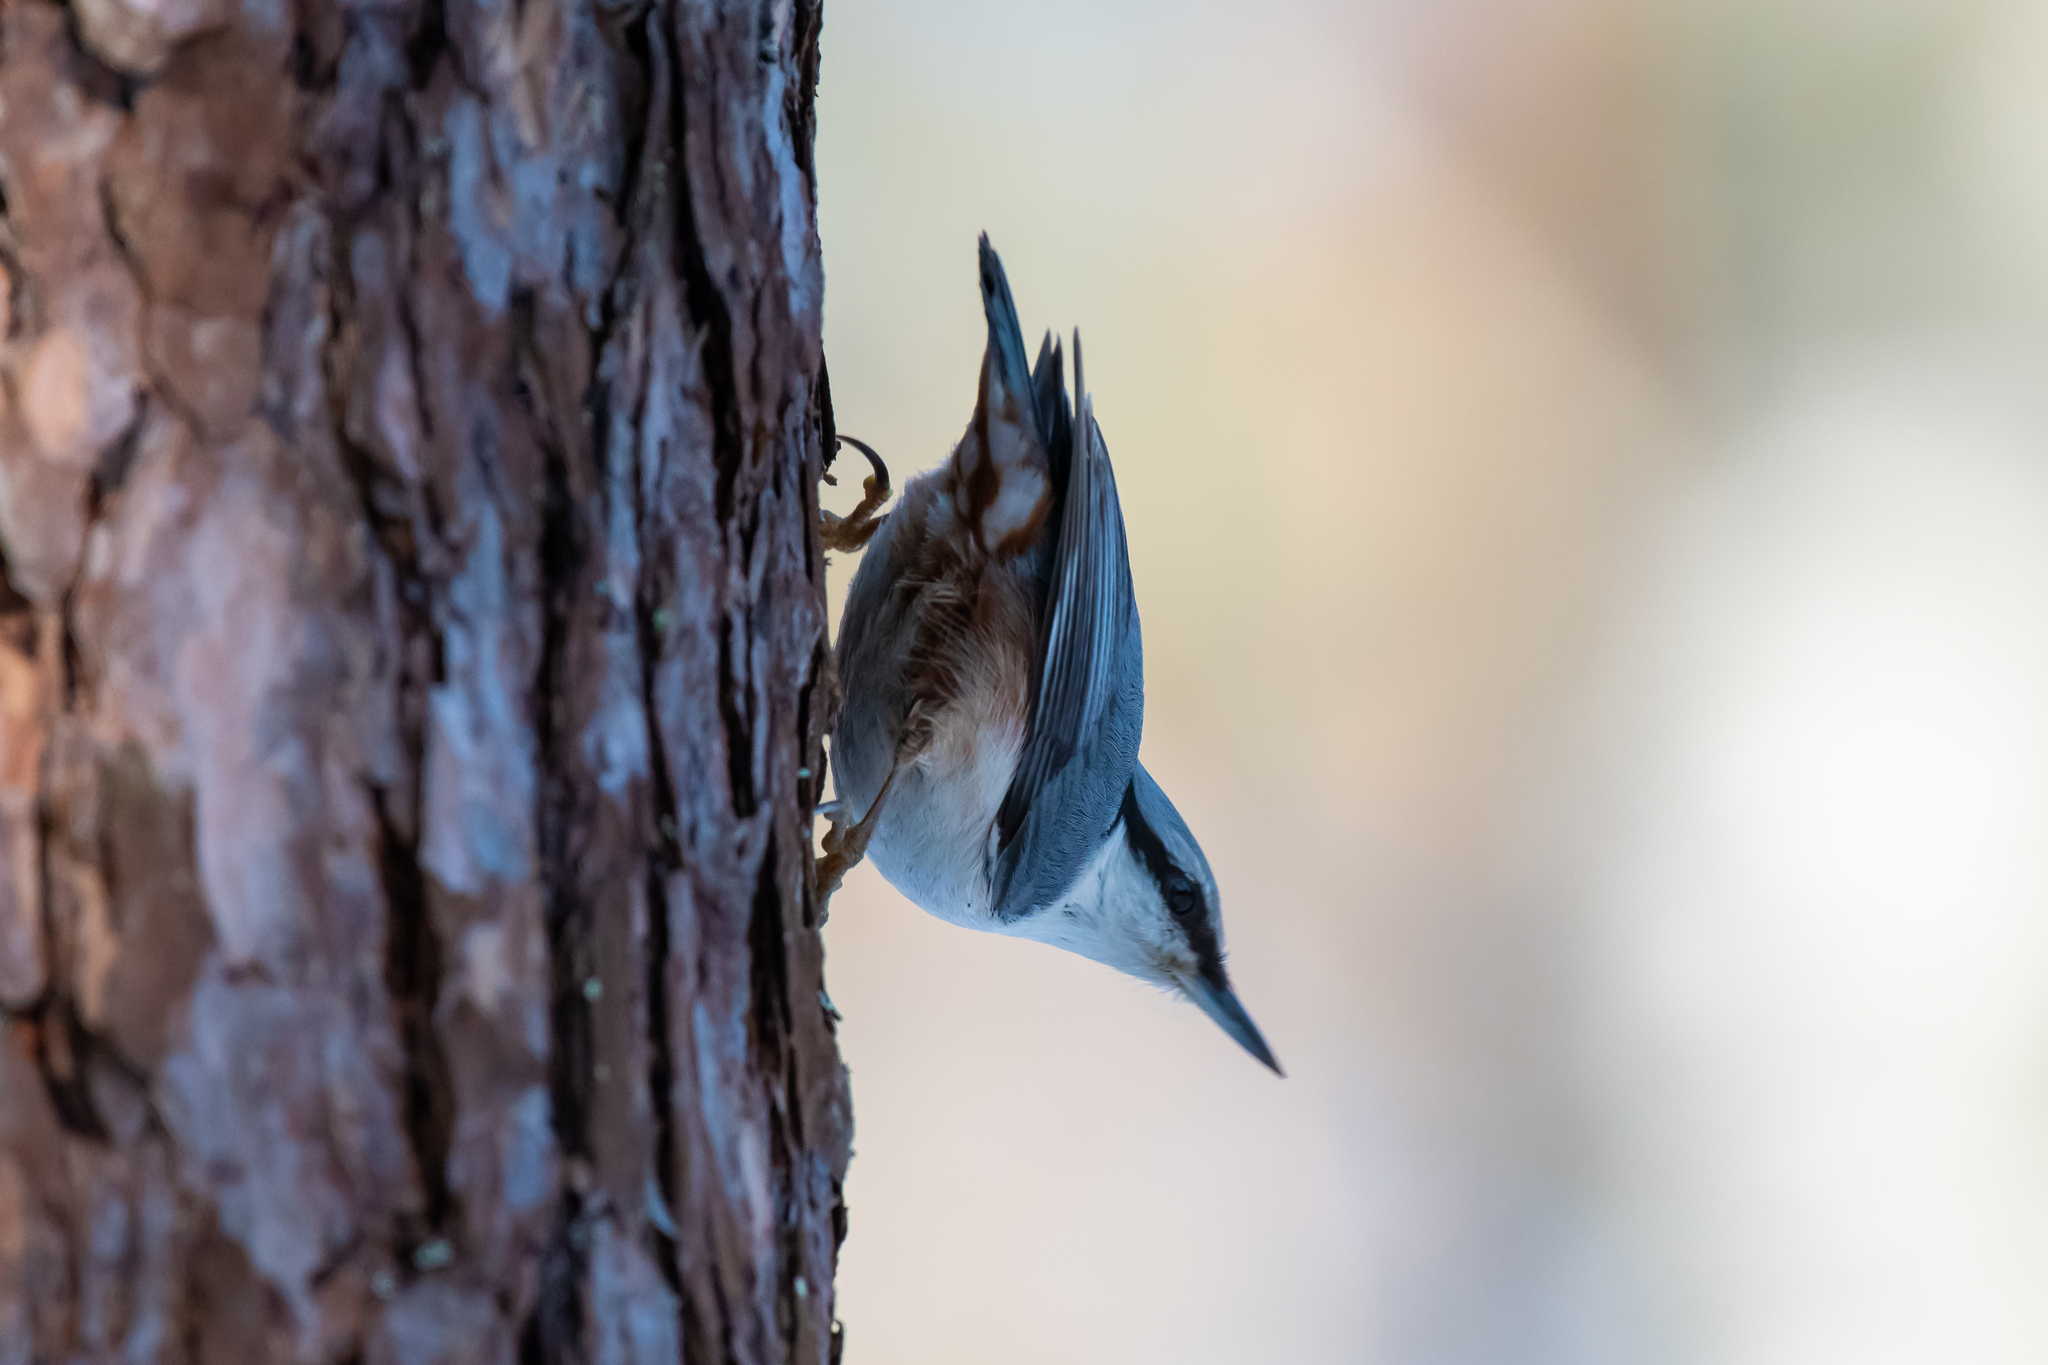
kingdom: Animalia
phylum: Chordata
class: Aves
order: Passeriformes
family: Sittidae
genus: Sitta
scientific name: Sitta europaea
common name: Eurasian nuthatch
